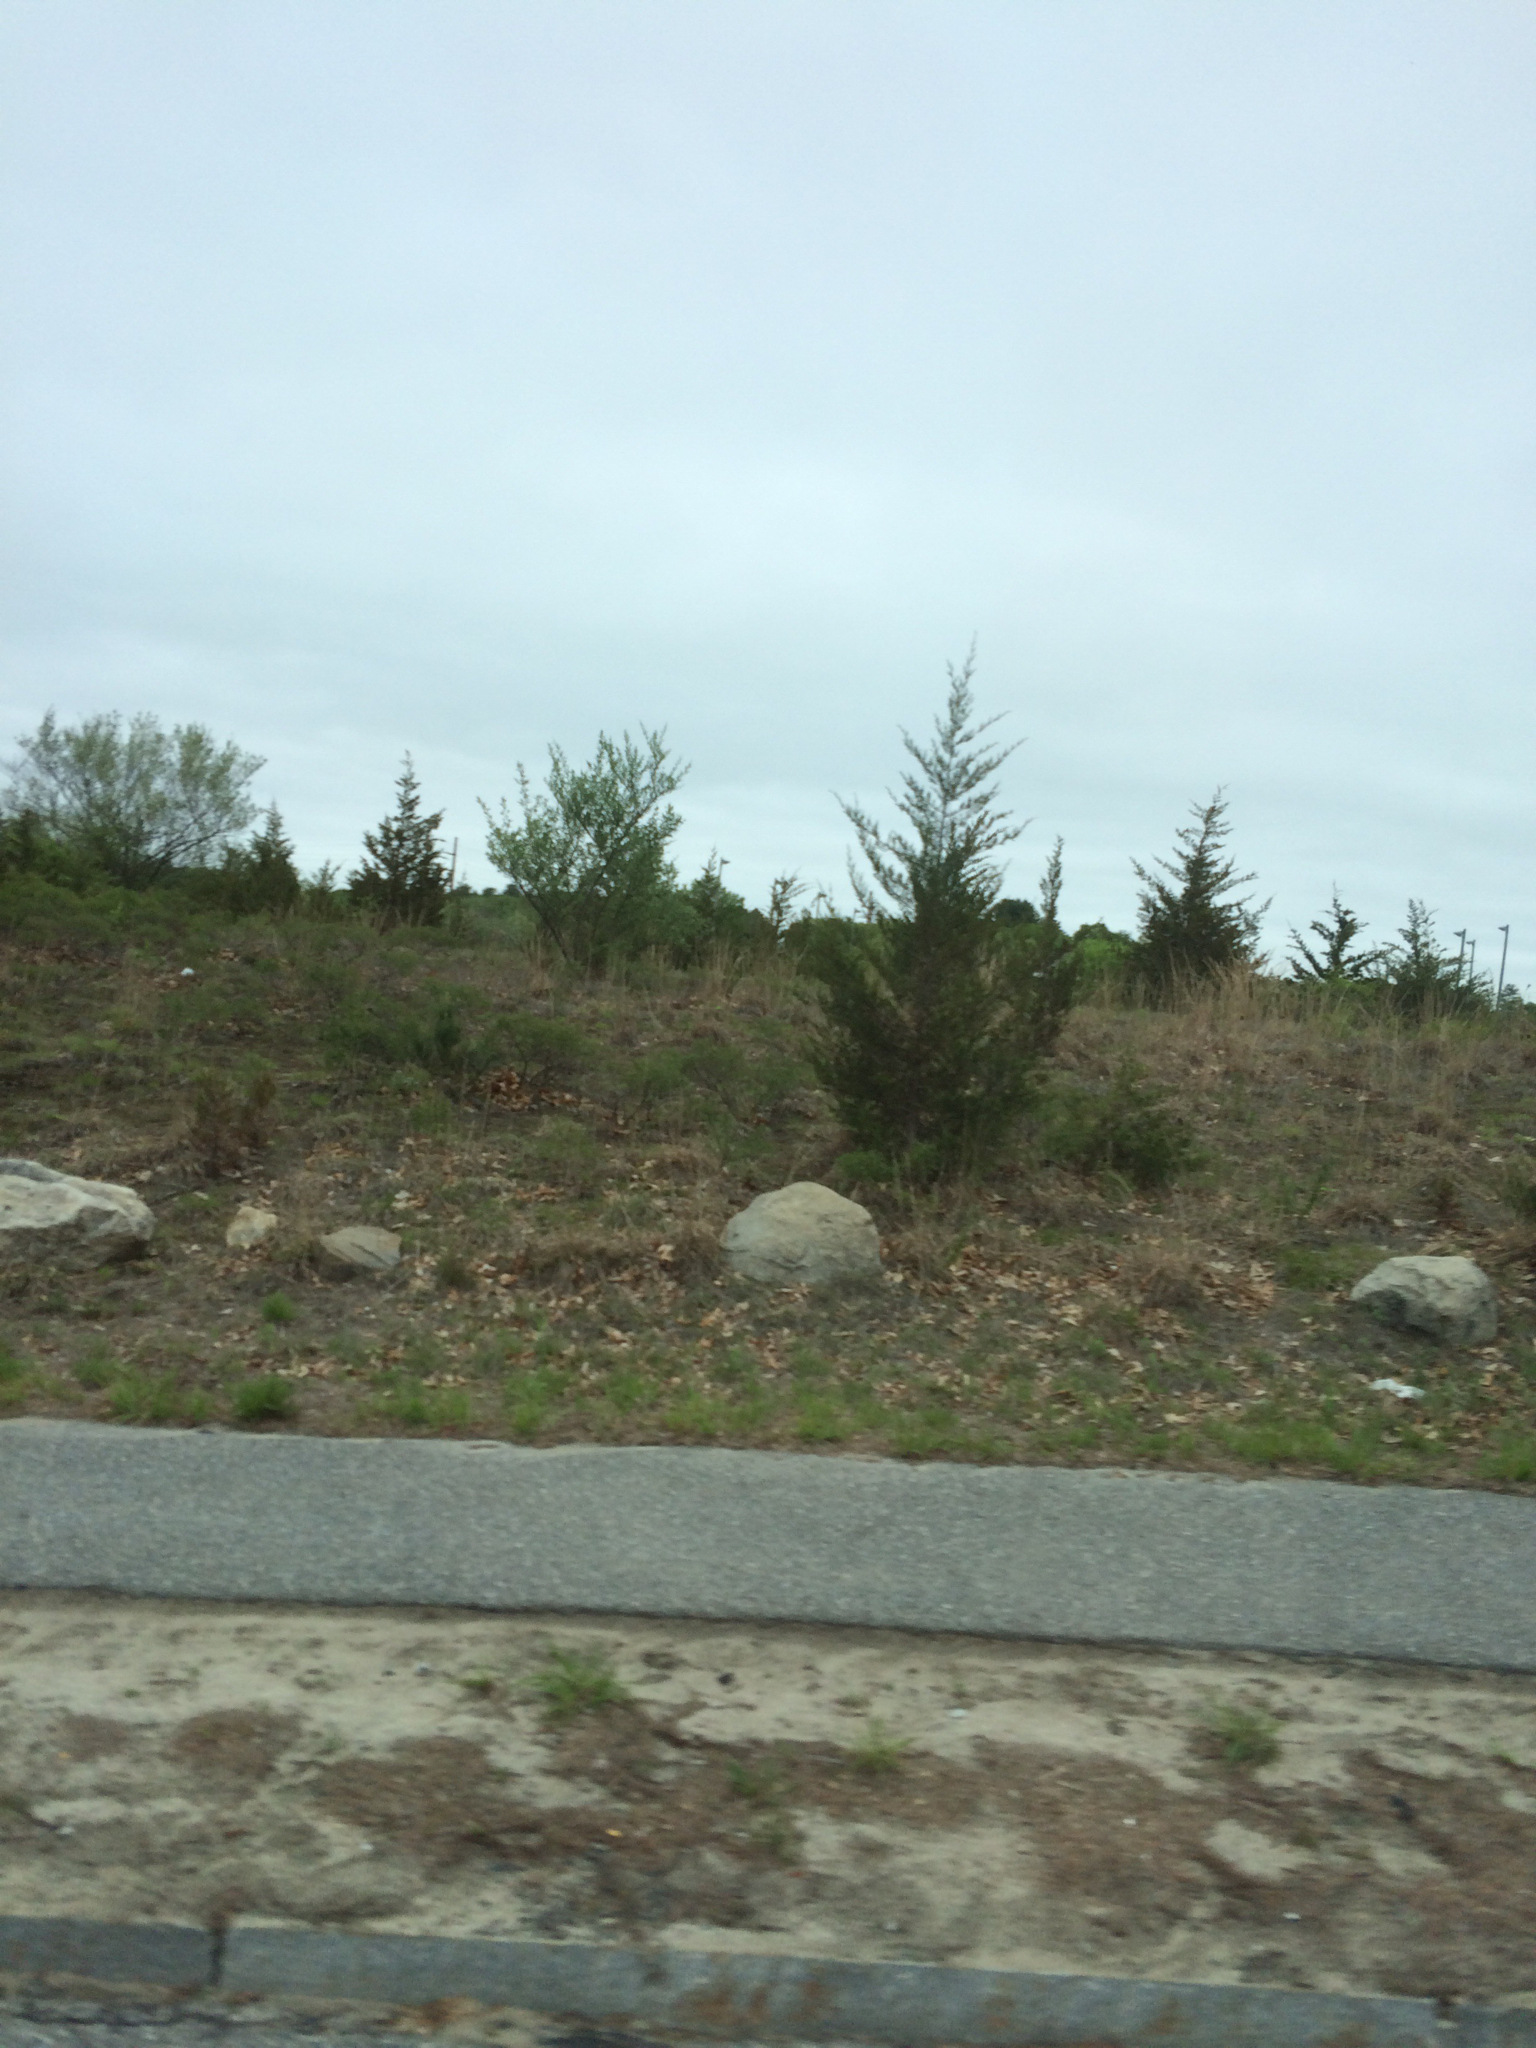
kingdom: Plantae
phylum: Tracheophyta
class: Pinopsida
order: Pinales
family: Cupressaceae
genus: Juniperus
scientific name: Juniperus virginiana
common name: Red juniper
